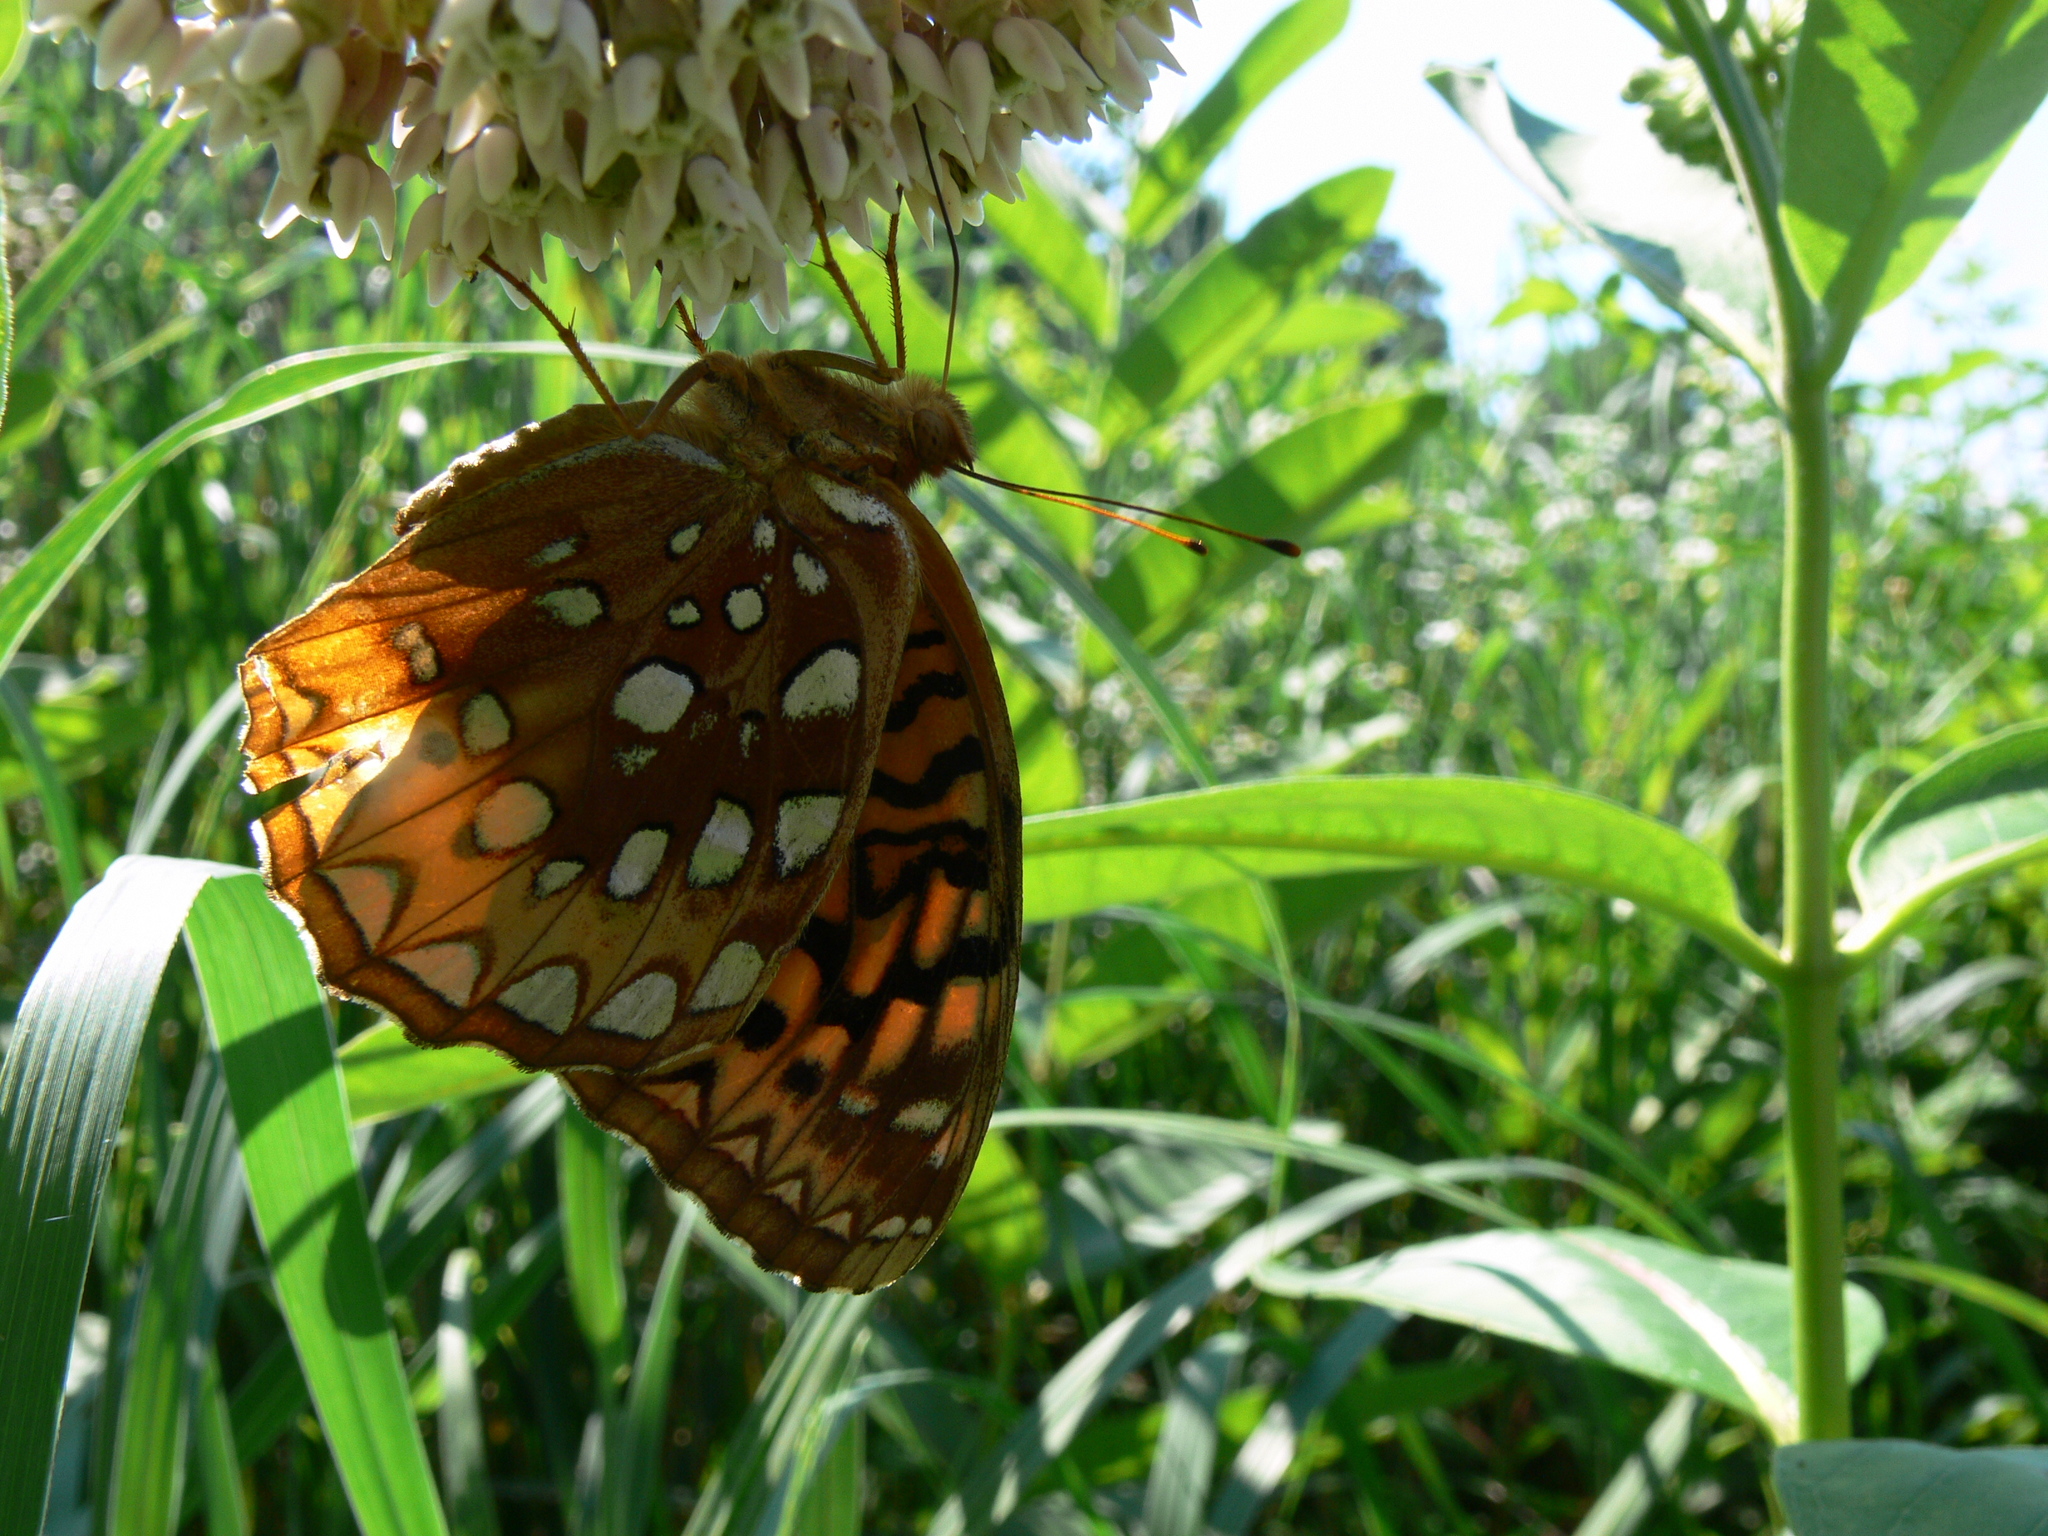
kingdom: Animalia
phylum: Arthropoda
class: Insecta
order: Lepidoptera
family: Nymphalidae
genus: Speyeria
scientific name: Speyeria cybele
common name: Great spangled fritillary
